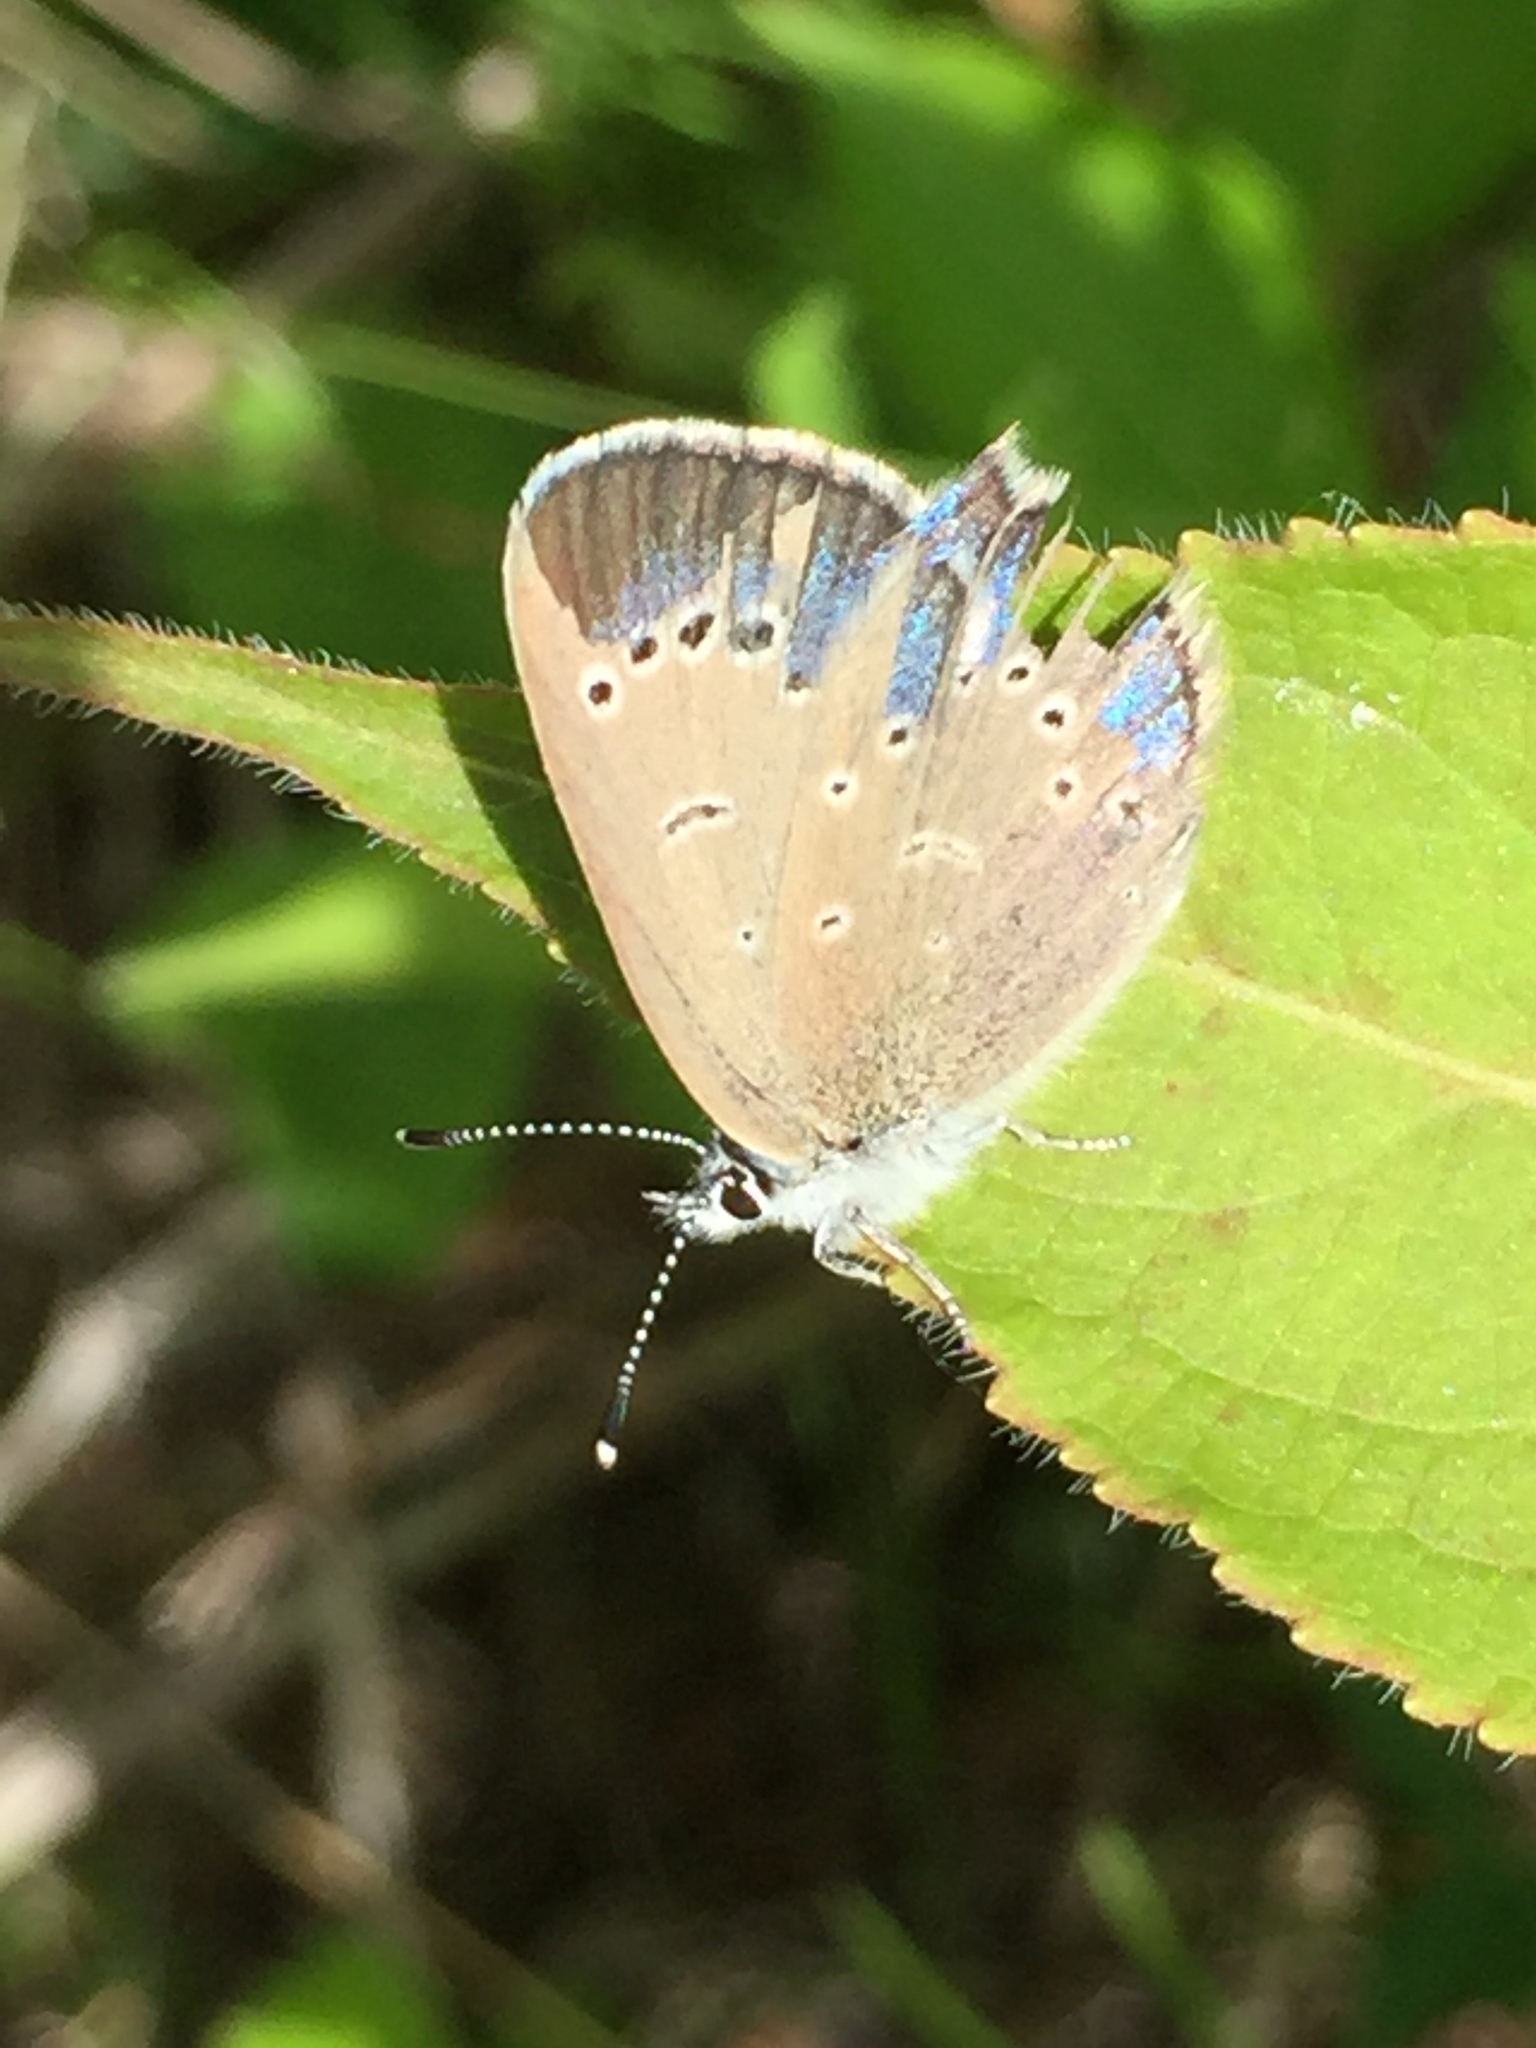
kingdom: Animalia
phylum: Arthropoda
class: Insecta
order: Lepidoptera
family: Lycaenidae
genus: Glaucopsyche
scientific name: Glaucopsyche lygdamus
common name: Silvery blue
